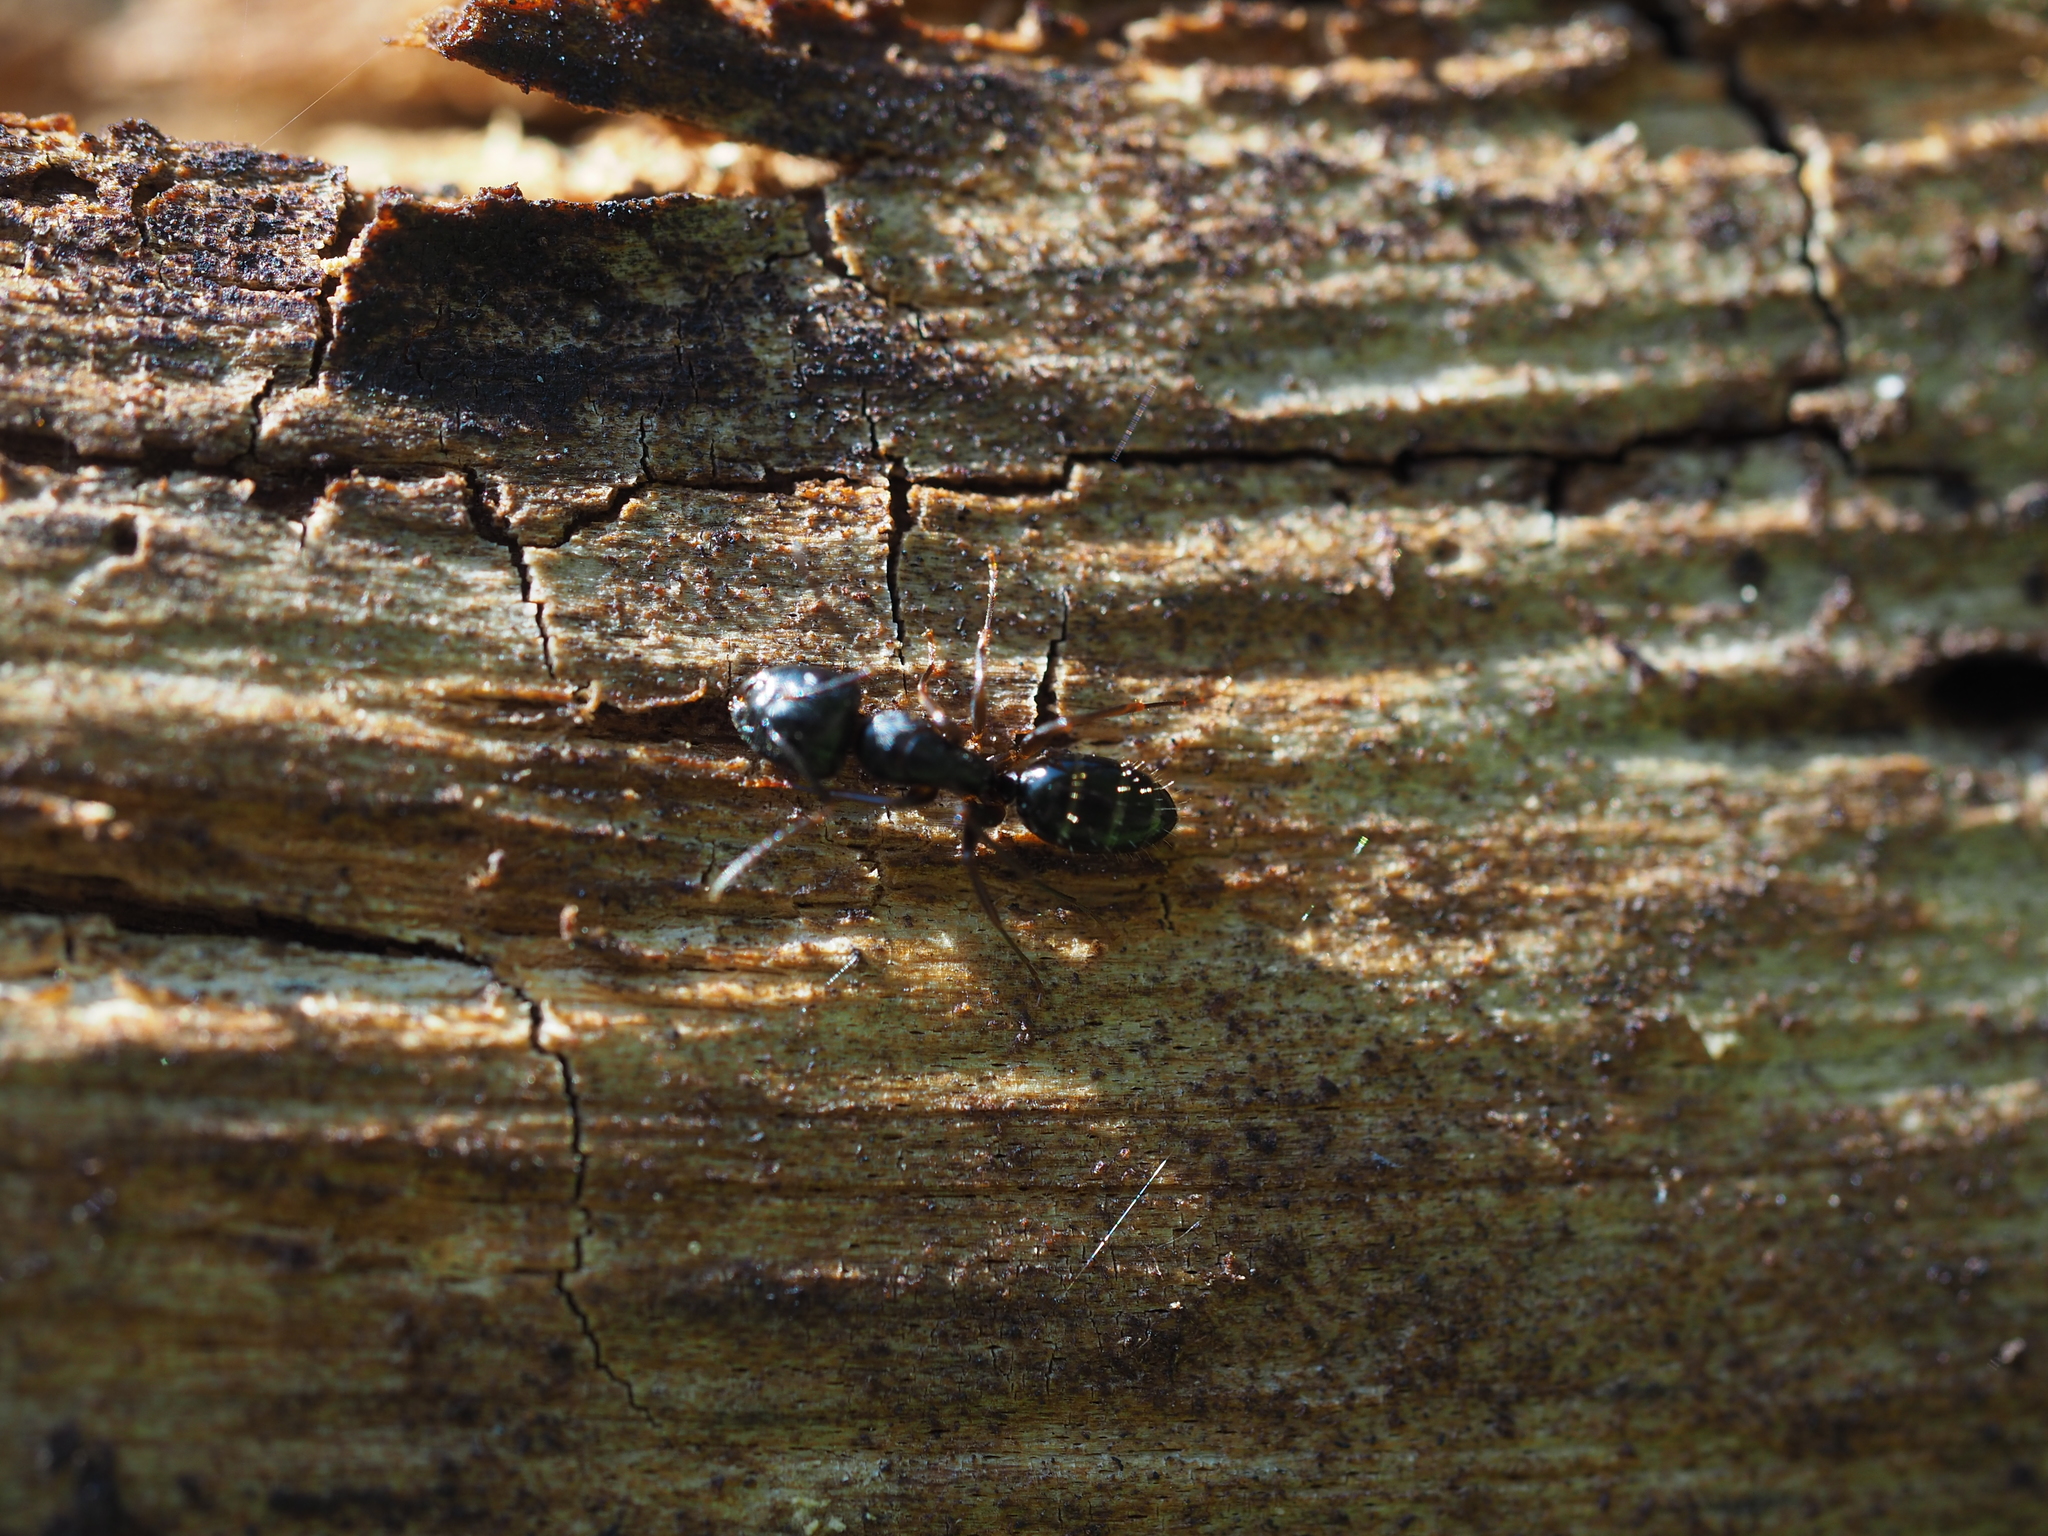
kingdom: Animalia
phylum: Arthropoda
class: Insecta
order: Hymenoptera
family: Formicidae
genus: Camponotus
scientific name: Camponotus fallax
